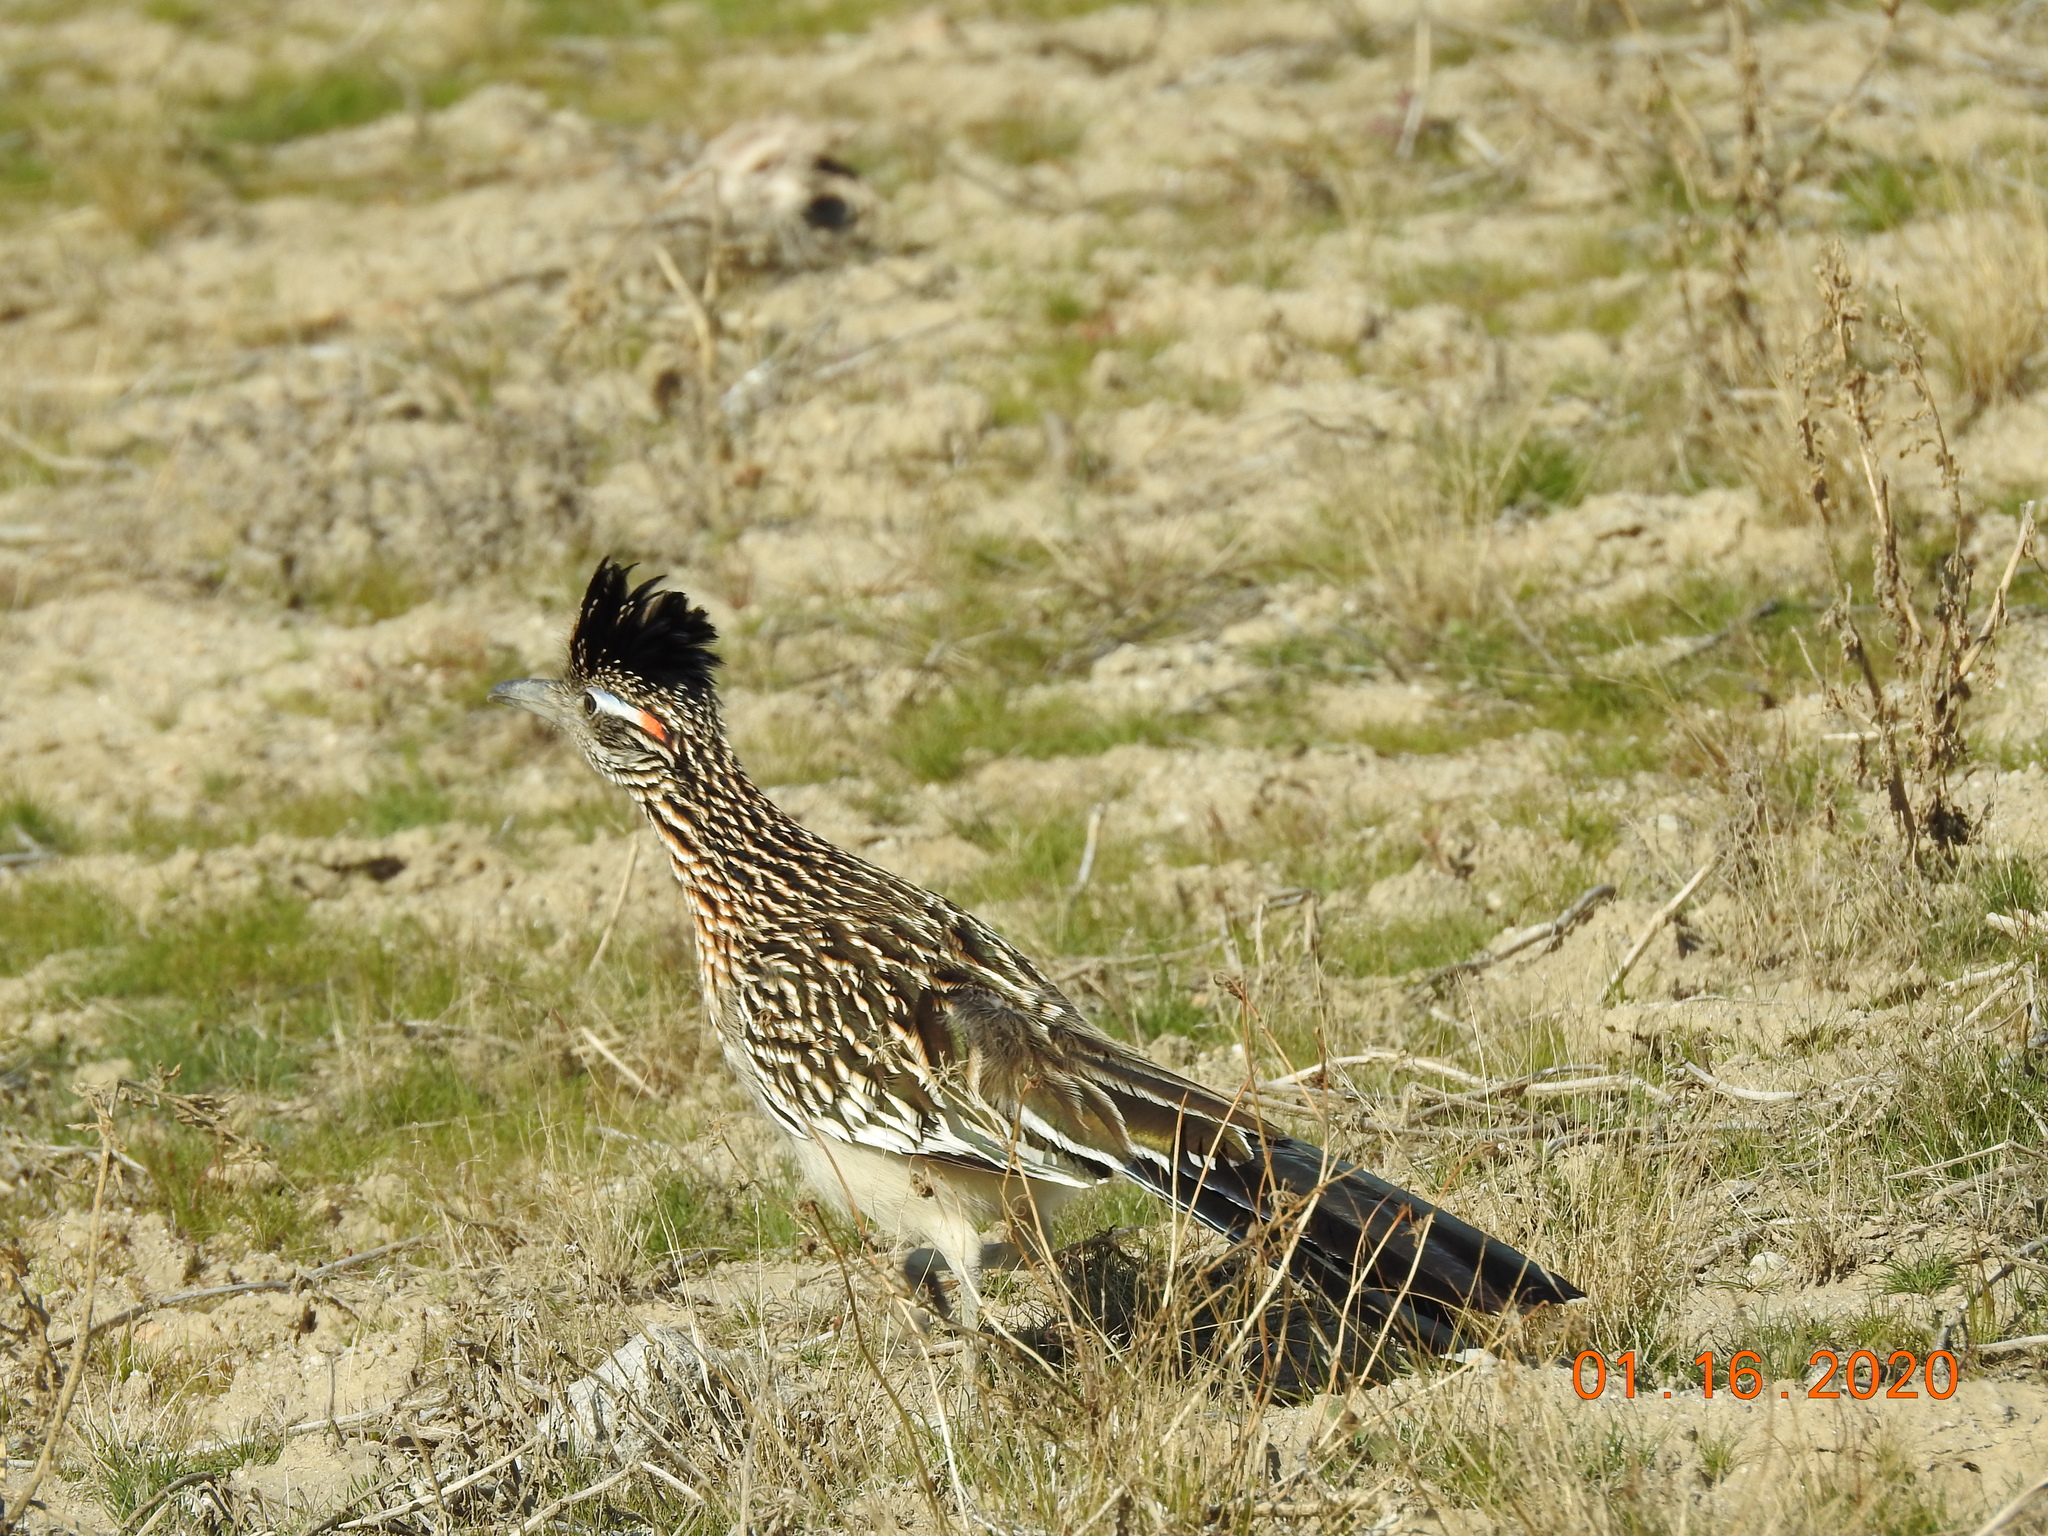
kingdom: Animalia
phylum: Chordata
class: Aves
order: Cuculiformes
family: Cuculidae
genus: Geococcyx
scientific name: Geococcyx californianus
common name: Greater roadrunner
